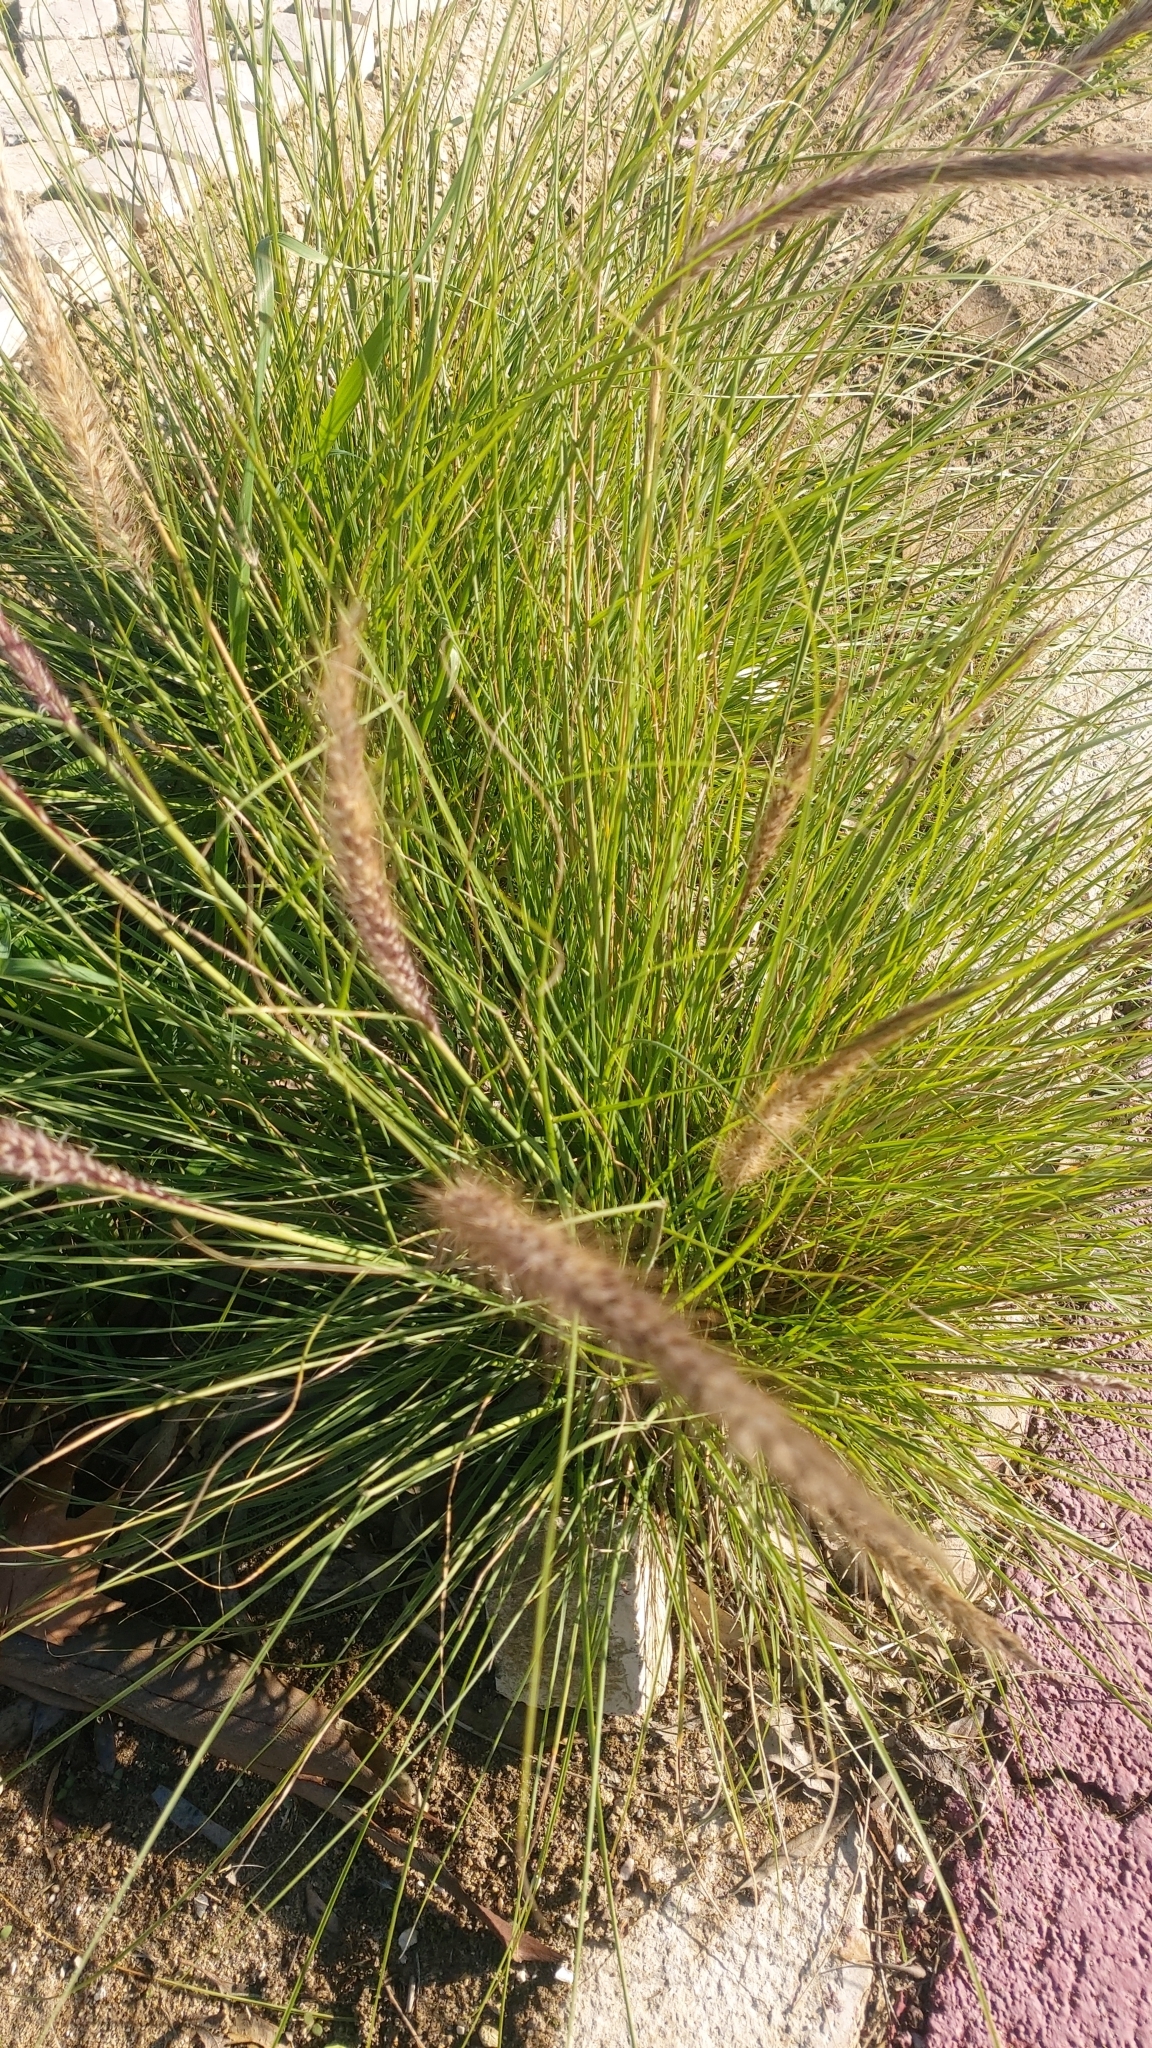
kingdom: Plantae
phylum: Tracheophyta
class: Liliopsida
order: Poales
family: Poaceae
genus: Cenchrus
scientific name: Cenchrus setaceus
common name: Crimson fountaingrass
